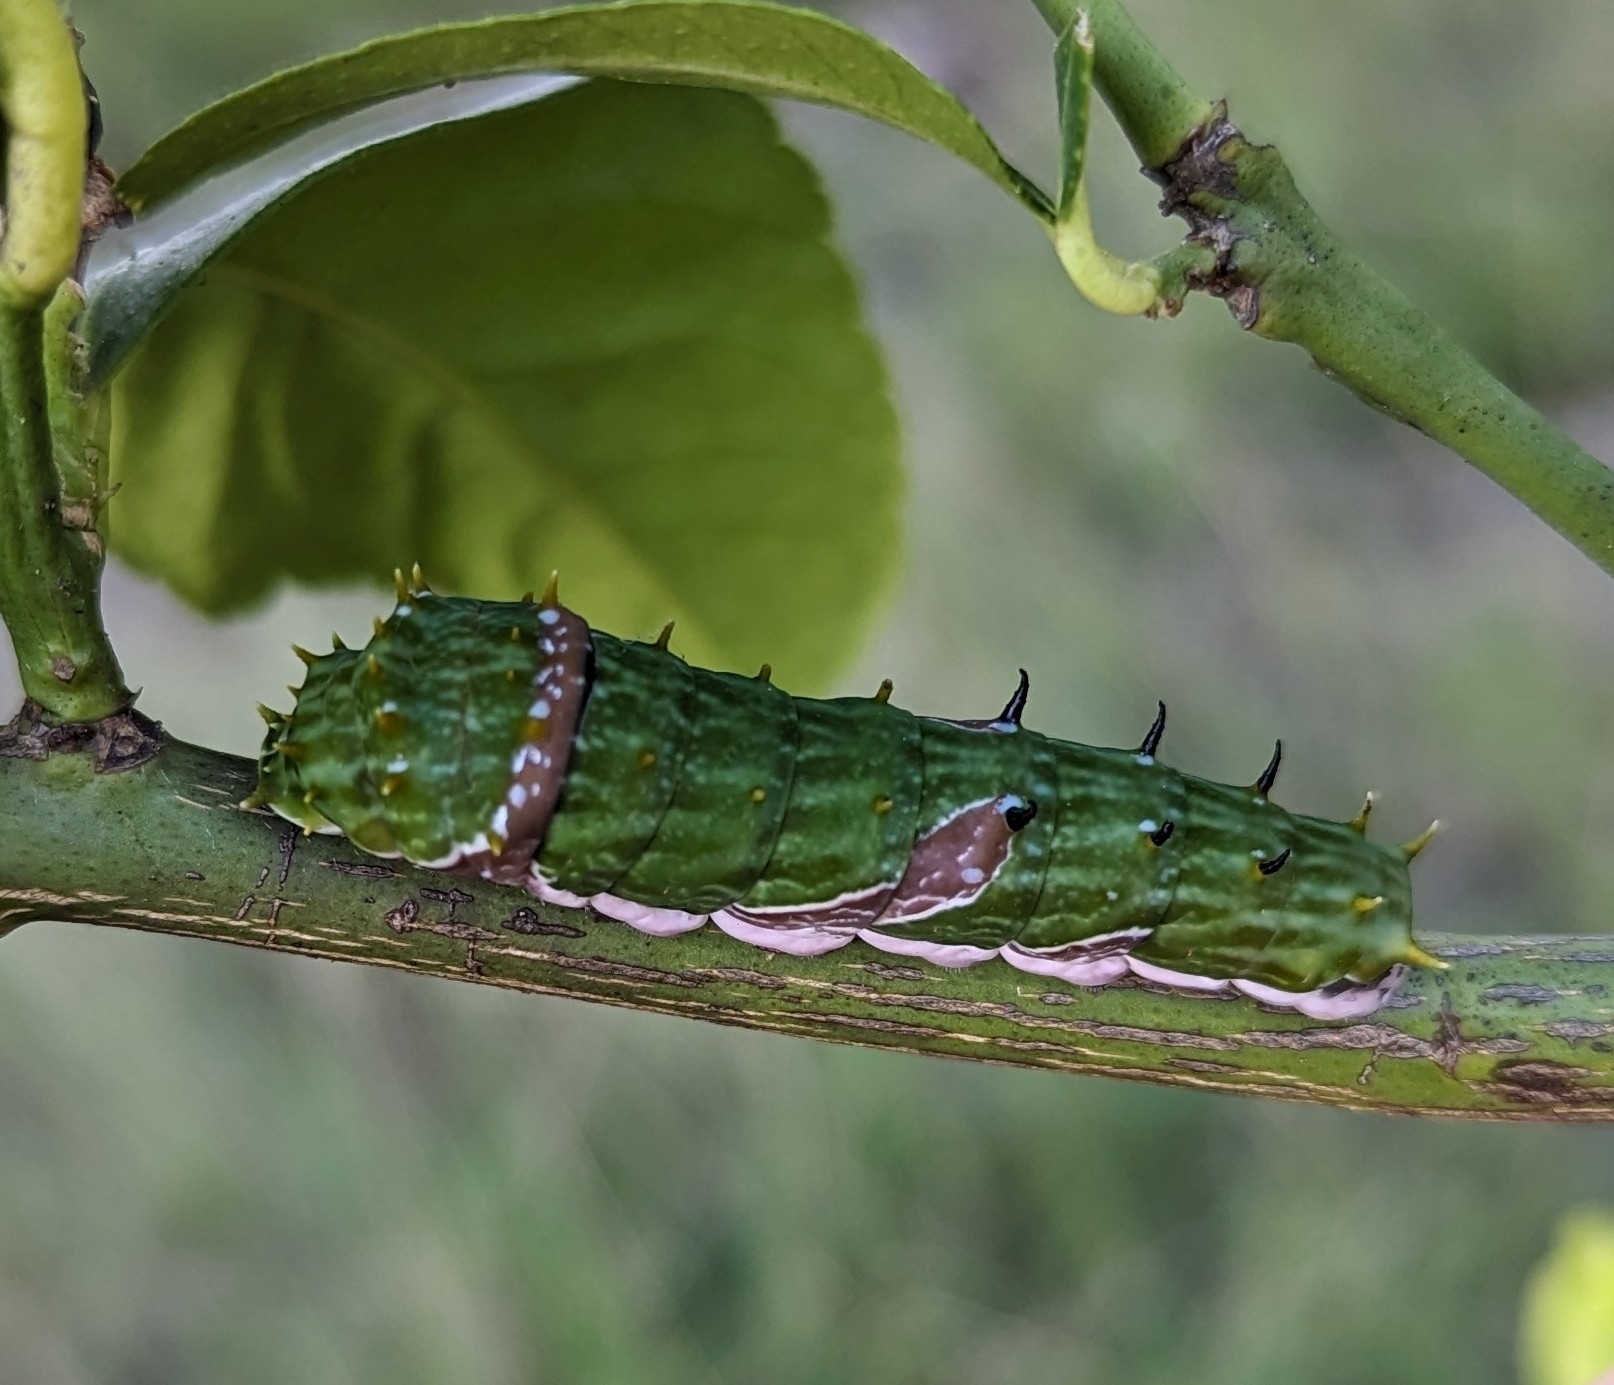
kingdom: Animalia
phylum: Arthropoda
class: Insecta
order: Lepidoptera
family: Papilionidae
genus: Papilio
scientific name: Papilio aegeus
